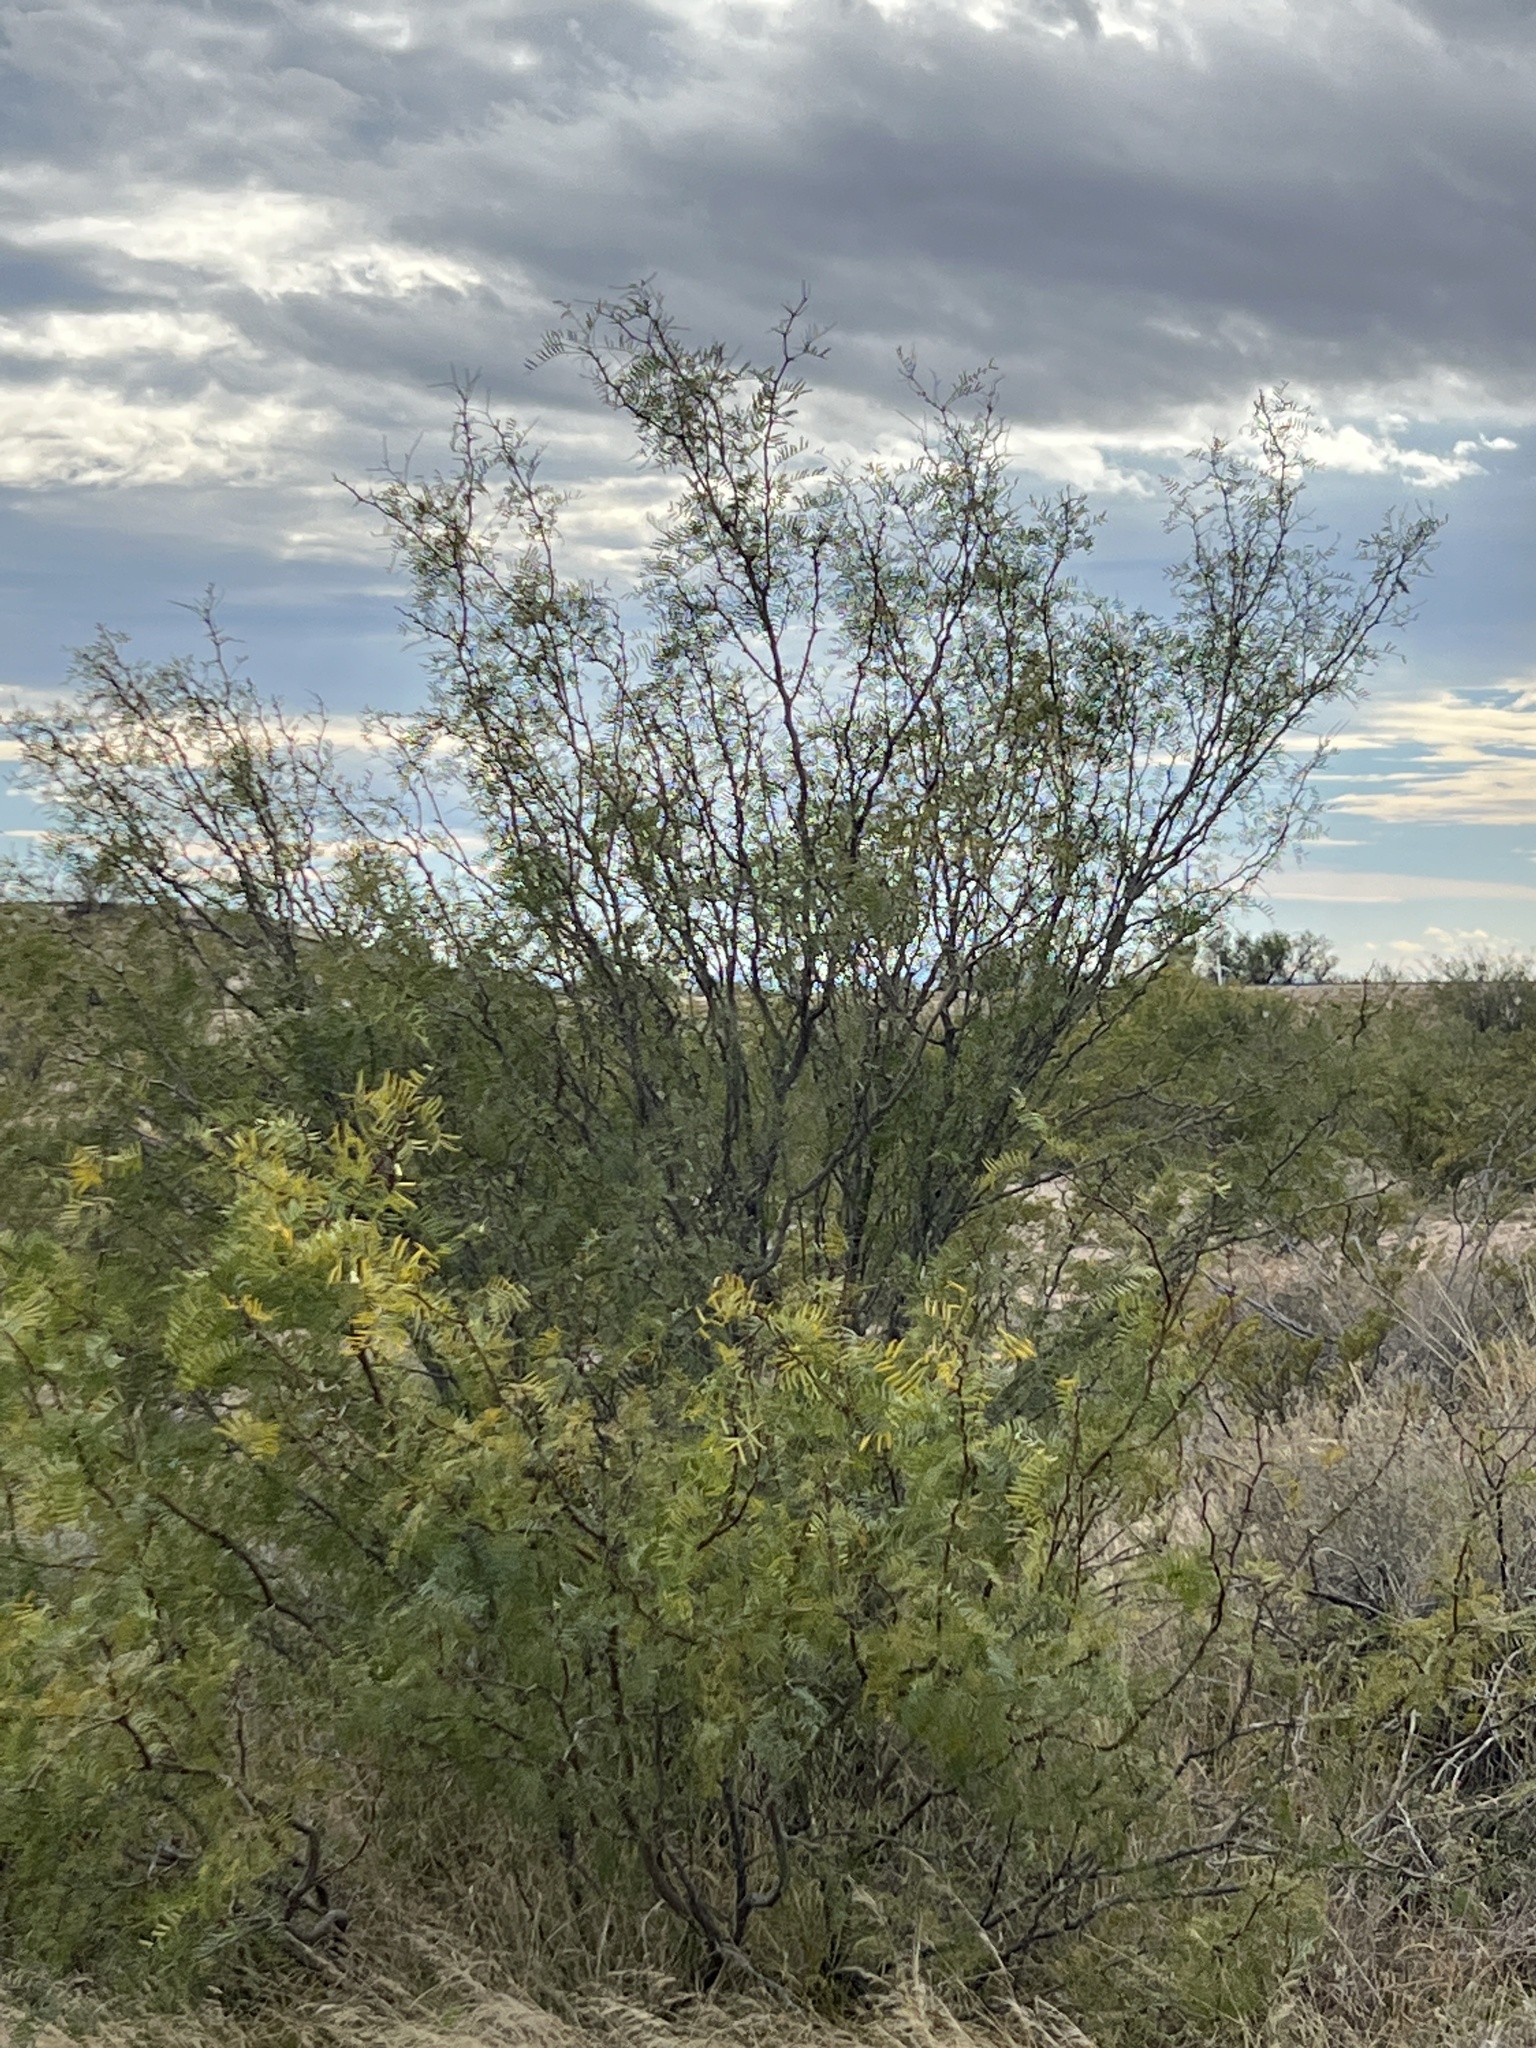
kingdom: Plantae
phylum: Tracheophyta
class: Magnoliopsida
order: Fabales
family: Fabaceae
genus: Prosopis
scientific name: Prosopis glandulosa
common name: Honey mesquite
